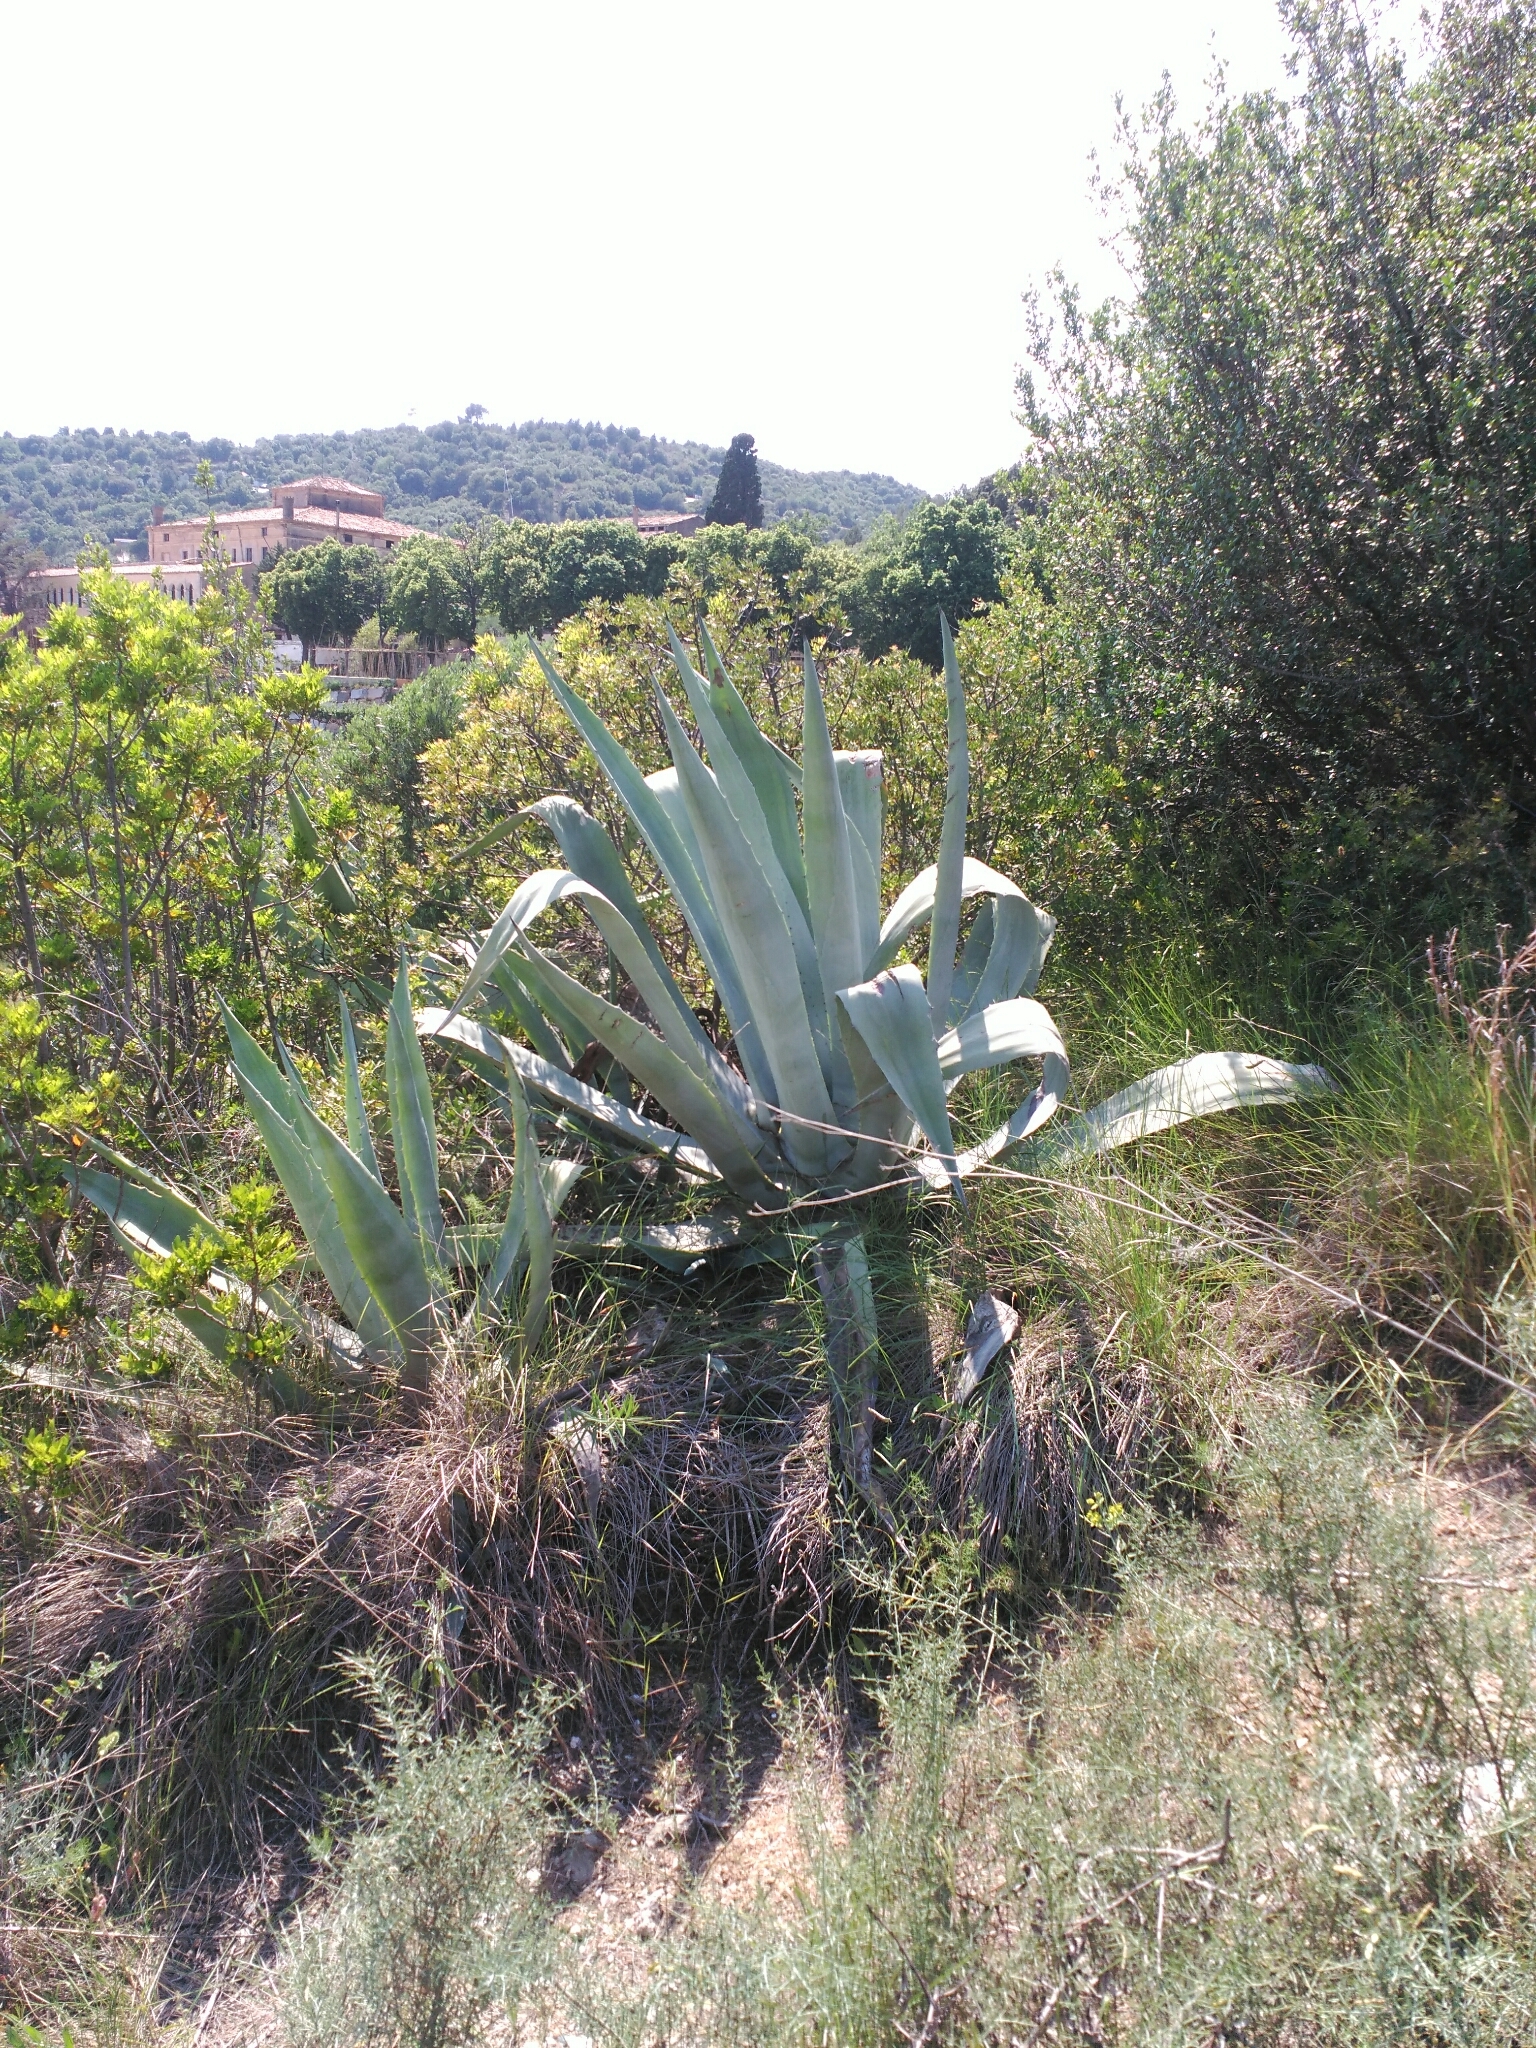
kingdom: Plantae
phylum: Tracheophyta
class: Liliopsida
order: Asparagales
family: Asparagaceae
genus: Agave
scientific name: Agave americana
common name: Centuryplant
